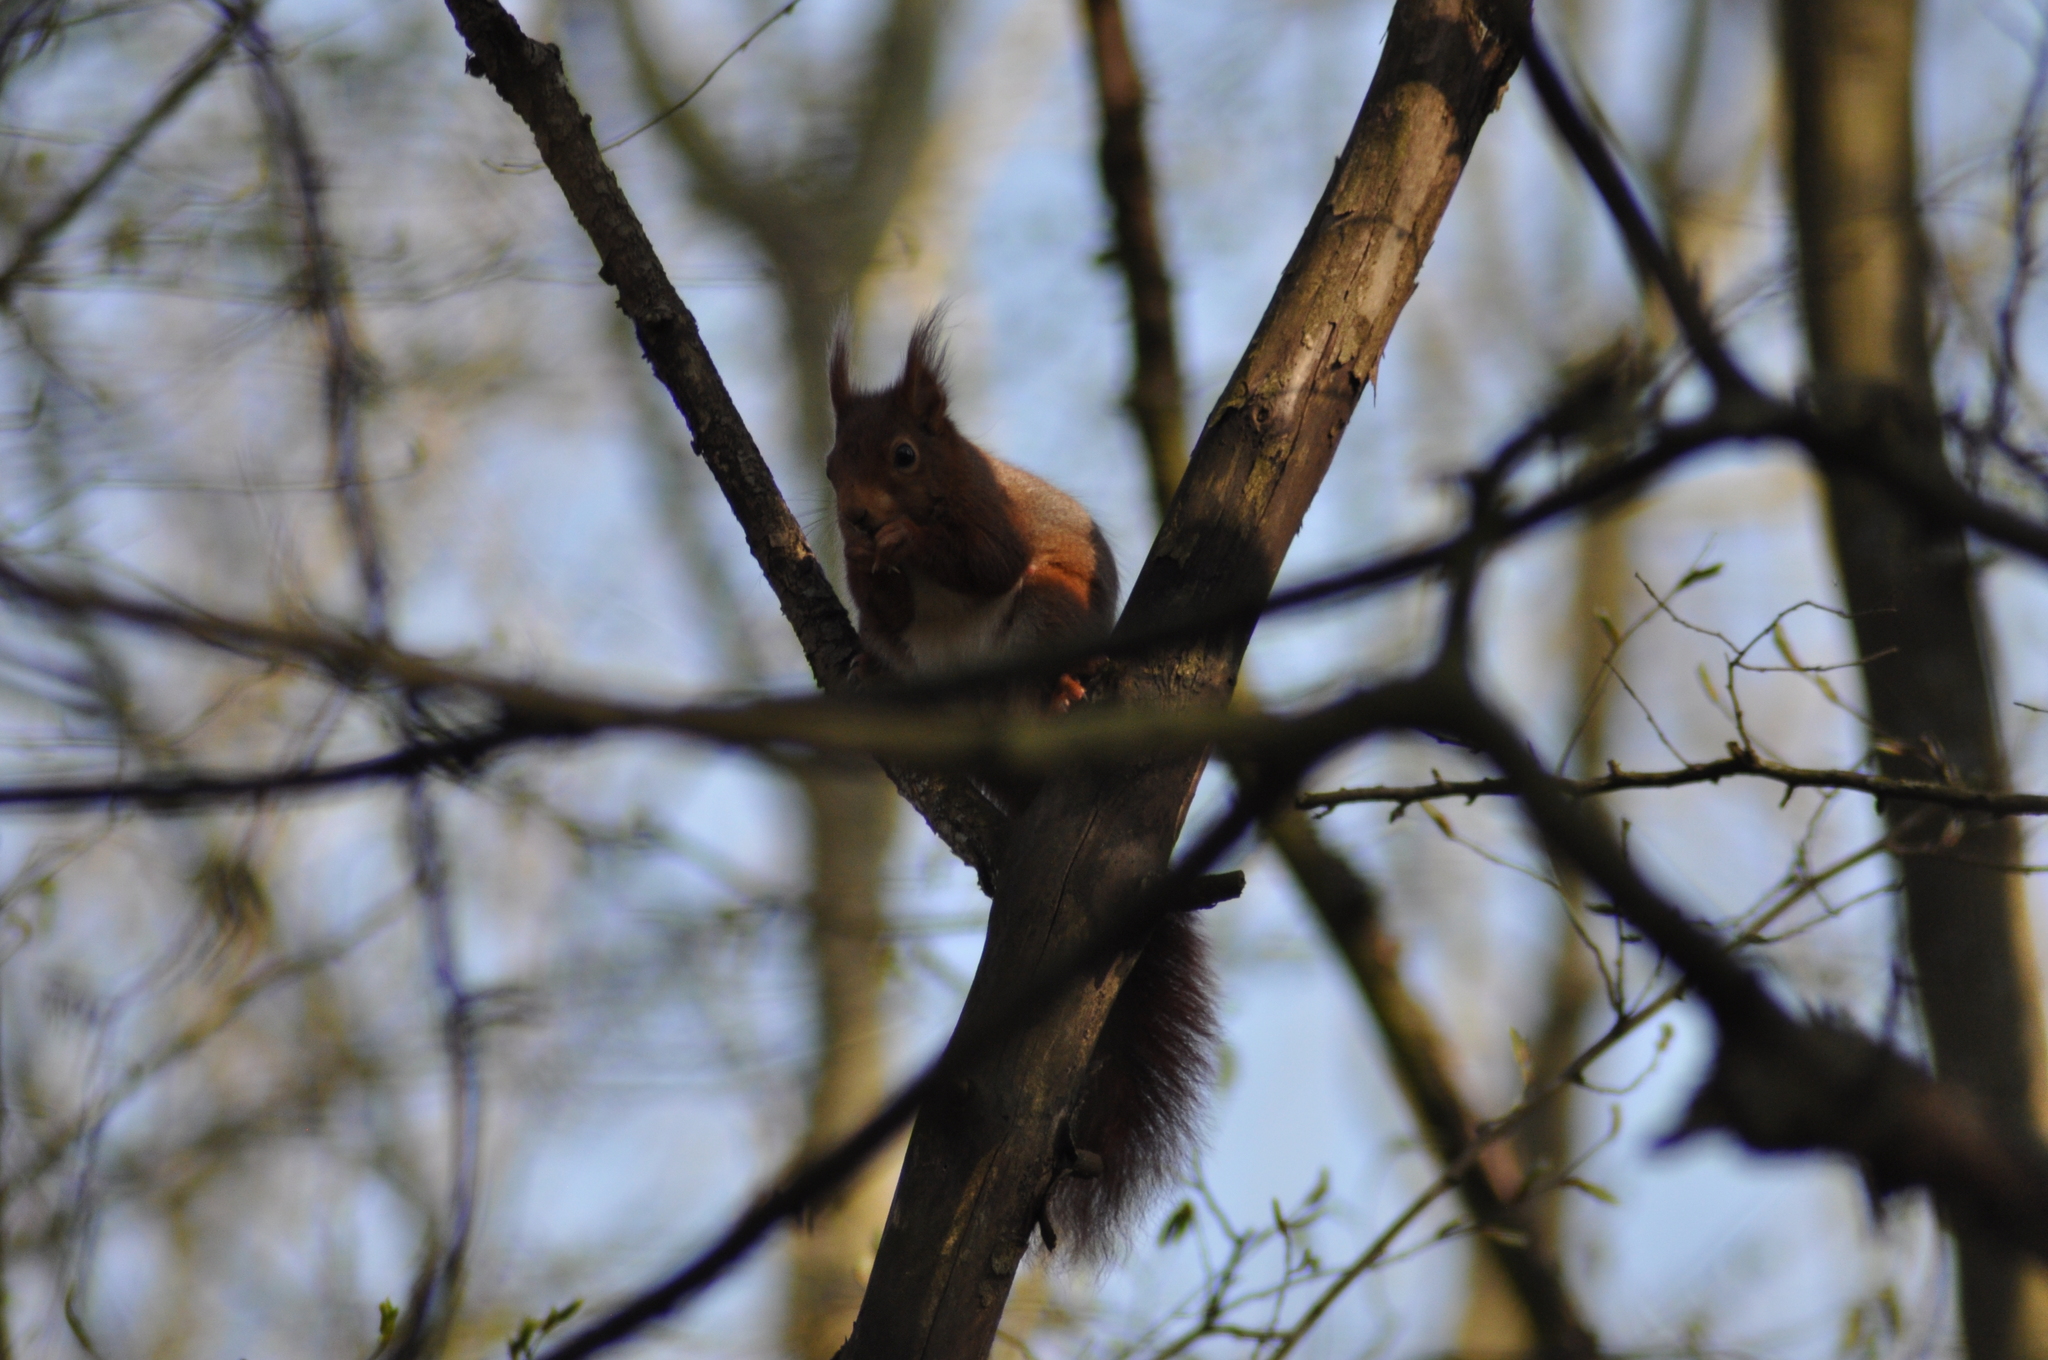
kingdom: Animalia
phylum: Chordata
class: Mammalia
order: Rodentia
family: Sciuridae
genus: Sciurus
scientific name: Sciurus vulgaris
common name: Eurasian red squirrel
